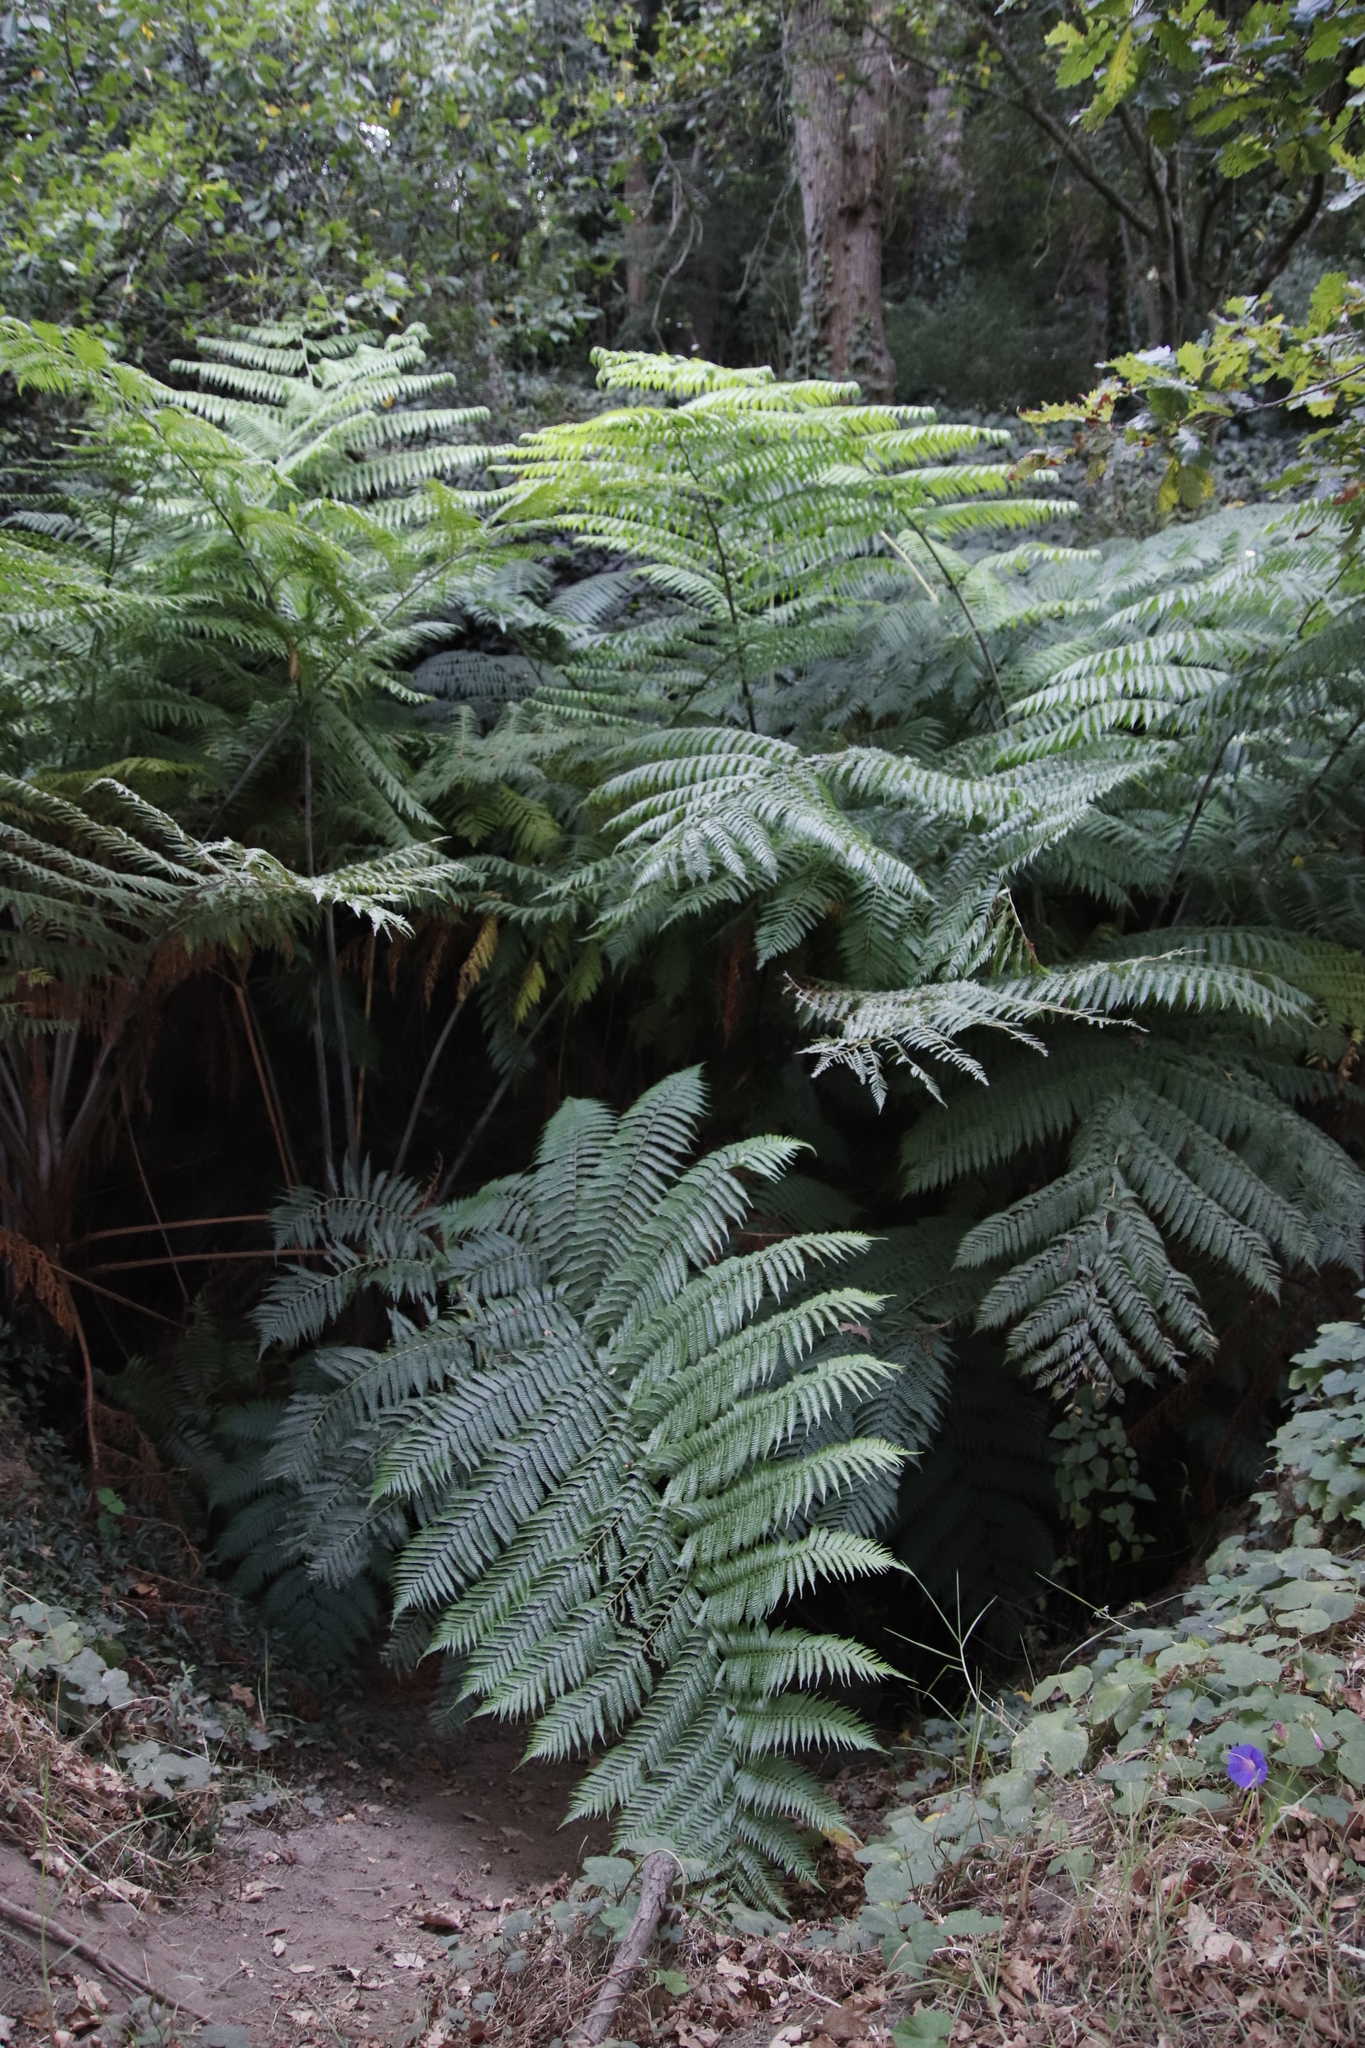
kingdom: Plantae
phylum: Tracheophyta
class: Polypodiopsida
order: Cyatheales
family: Cyatheaceae
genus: Sphaeropteris
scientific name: Sphaeropteris cooperi
